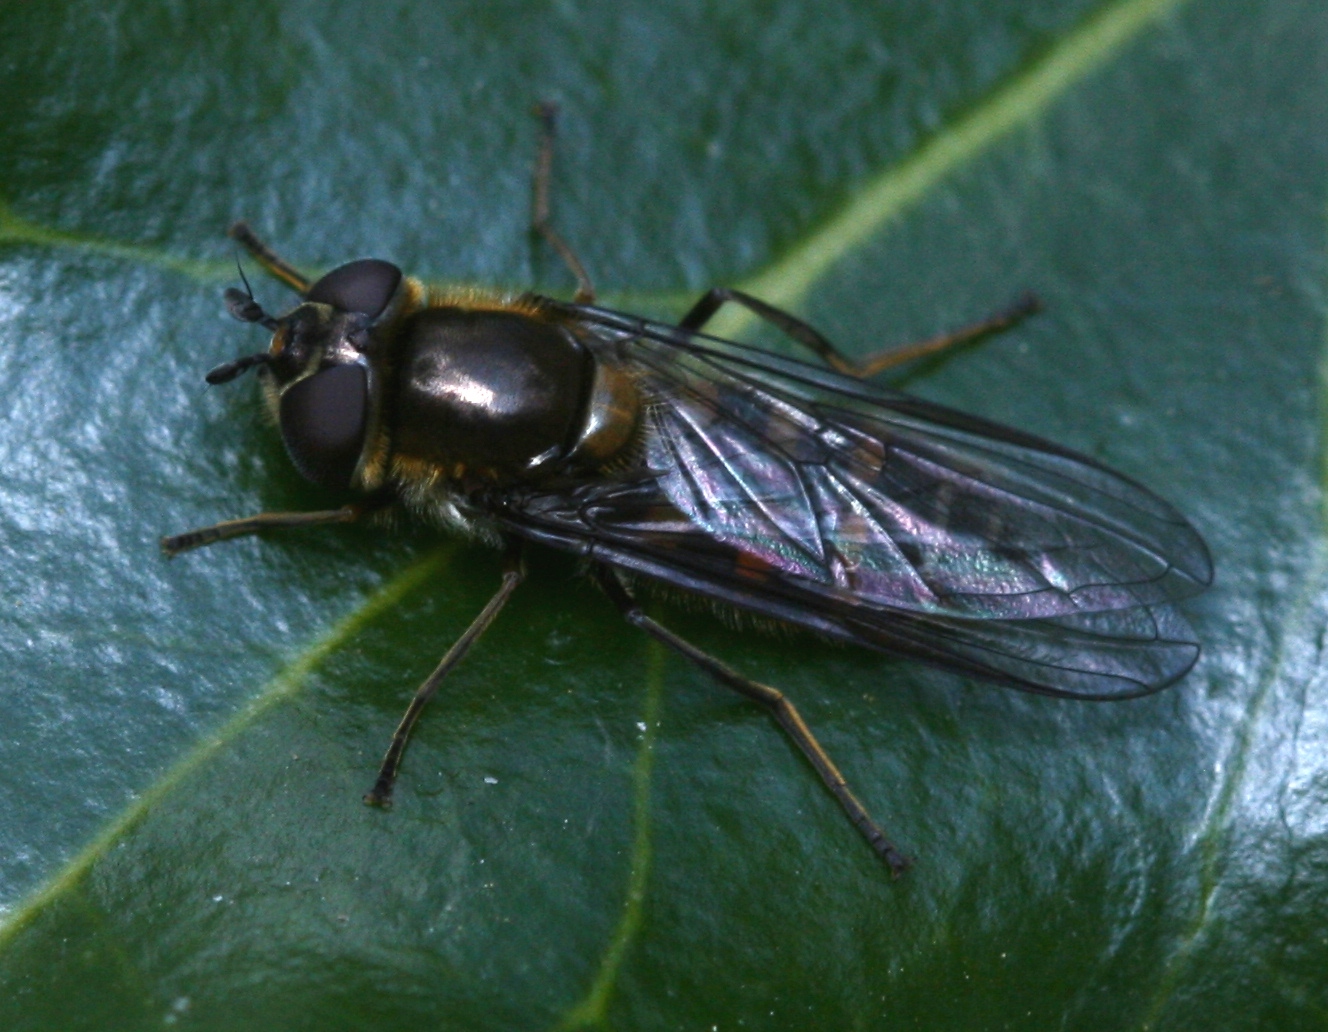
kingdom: Animalia
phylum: Arthropoda
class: Insecta
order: Diptera
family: Syrphidae
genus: Melangyna
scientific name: Melangyna lasiophthalma
